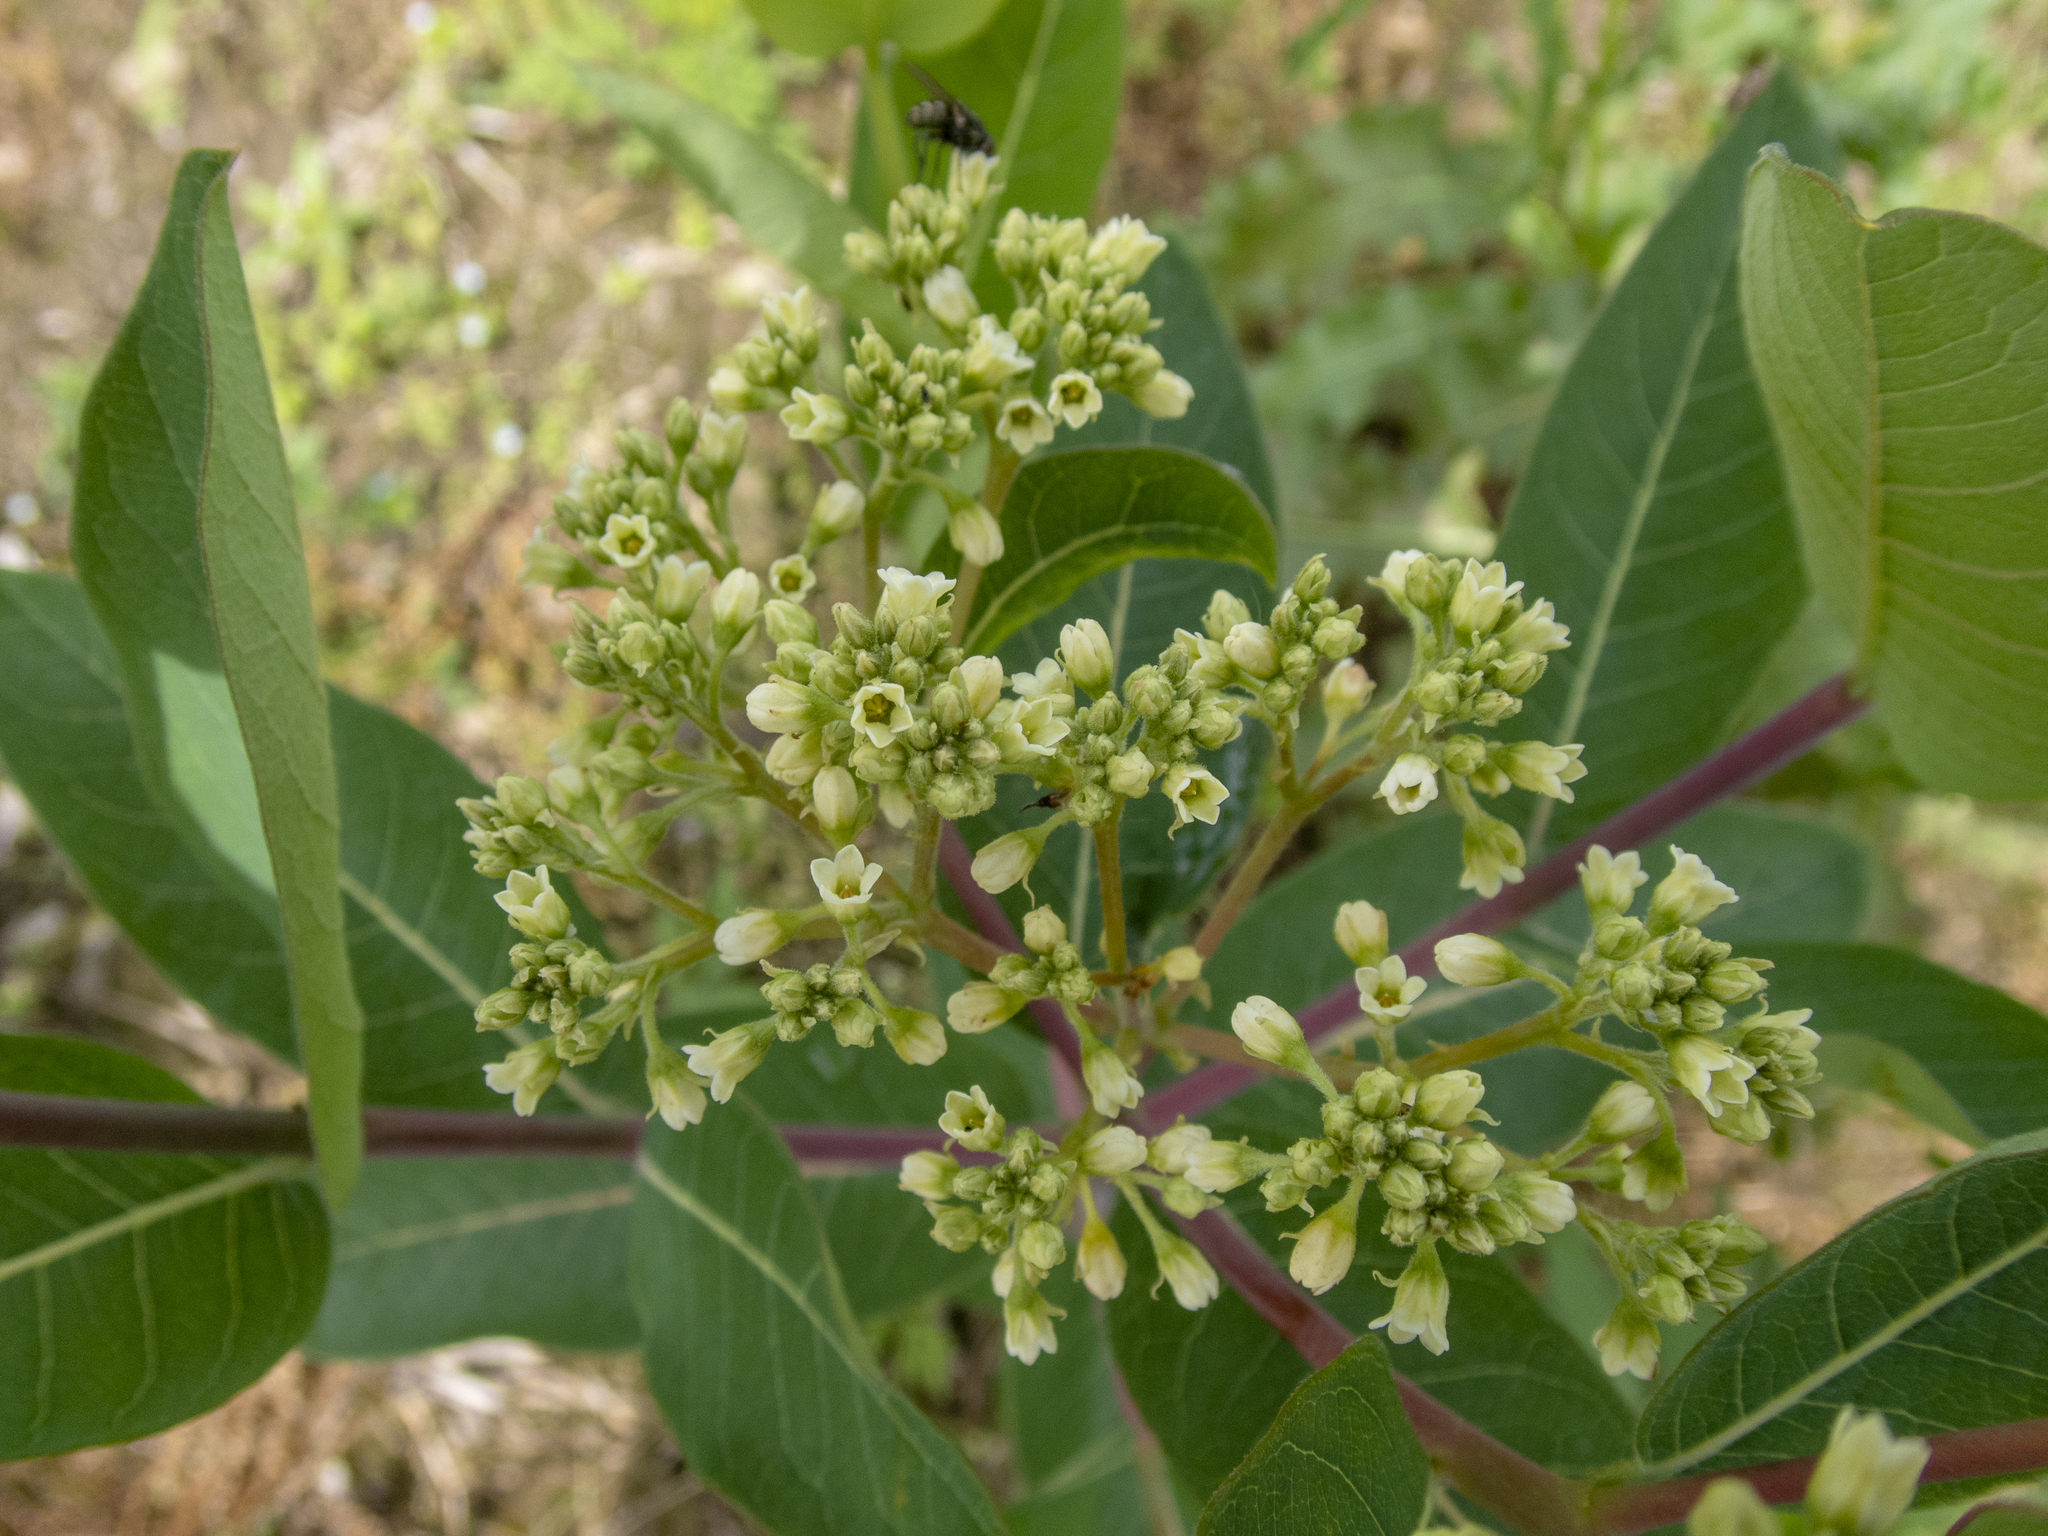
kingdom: Plantae
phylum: Tracheophyta
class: Magnoliopsida
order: Gentianales
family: Apocynaceae
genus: Apocynum
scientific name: Apocynum cannabinum
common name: Hemp dogbane
